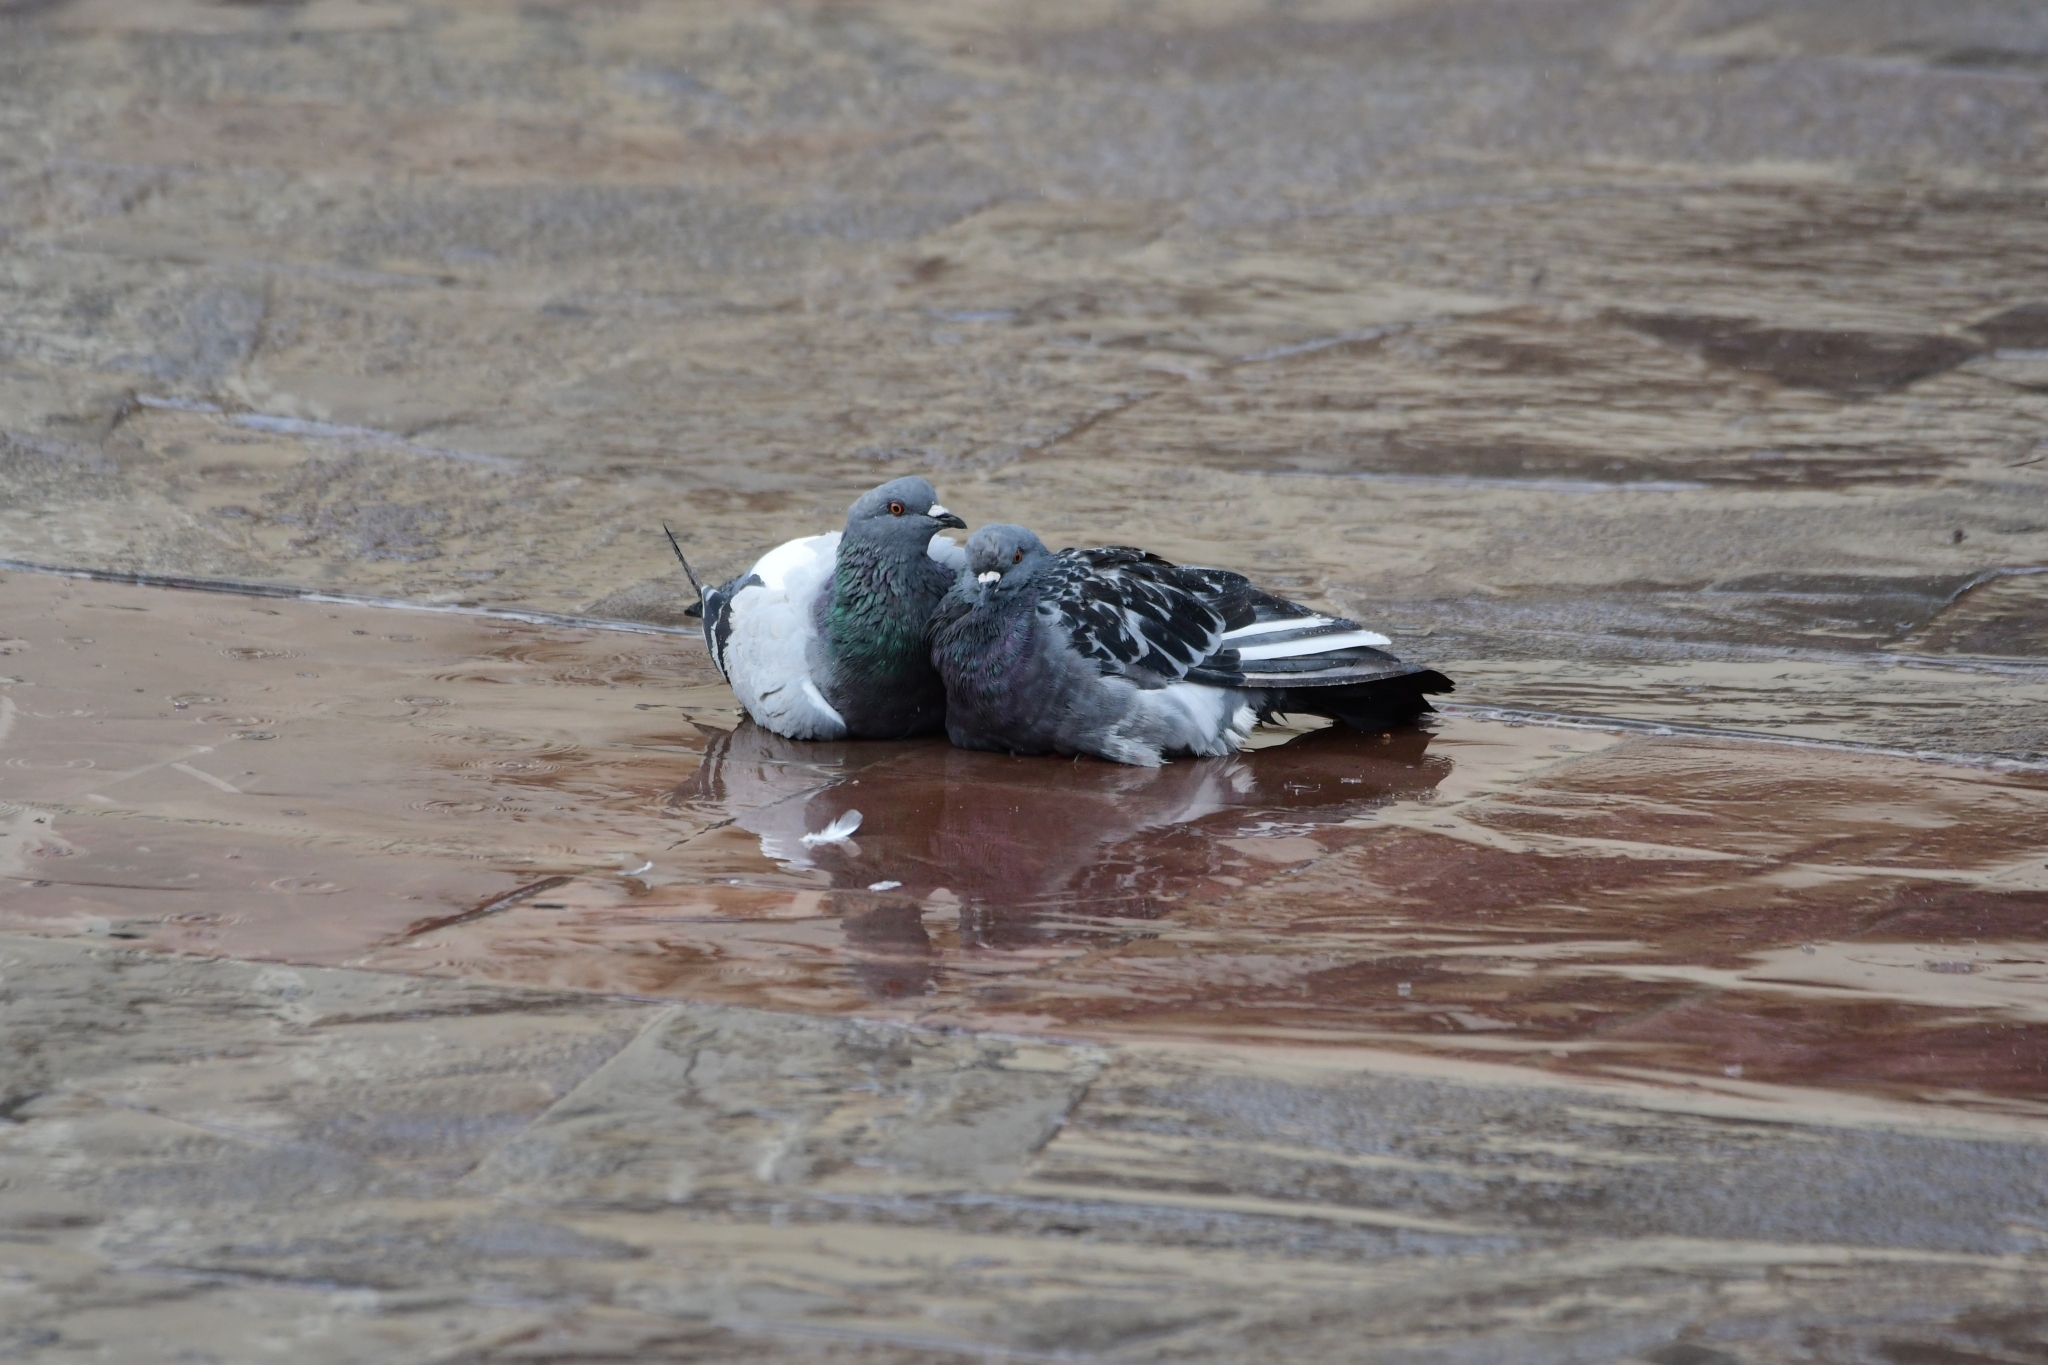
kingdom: Animalia
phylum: Chordata
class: Aves
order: Columbiformes
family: Columbidae
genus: Columba
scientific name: Columba livia
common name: Rock pigeon
